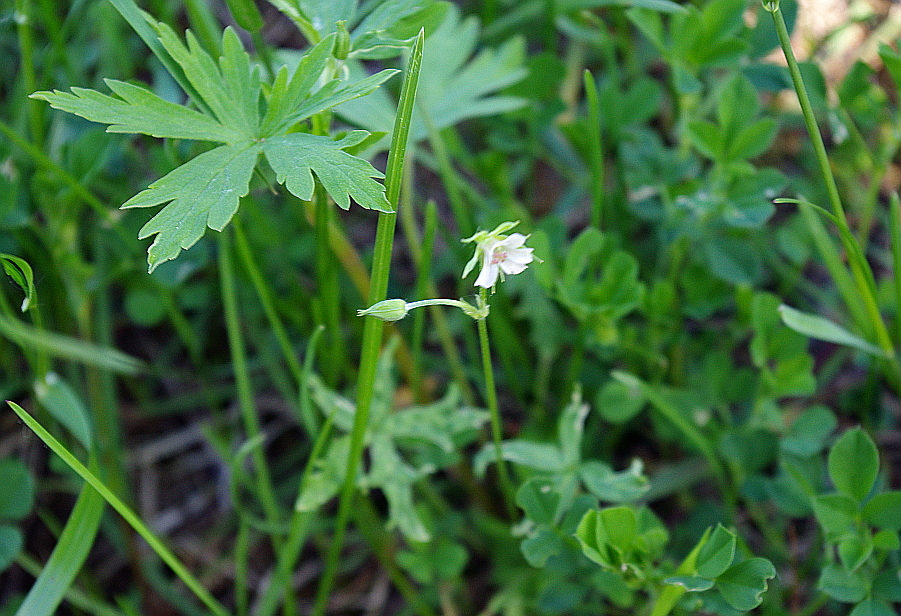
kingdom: Plantae
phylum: Tracheophyta
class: Magnoliopsida
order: Geraniales
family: Geraniaceae
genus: Geranium
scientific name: Geranium sibiricum
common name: Siberian crane's-bill
